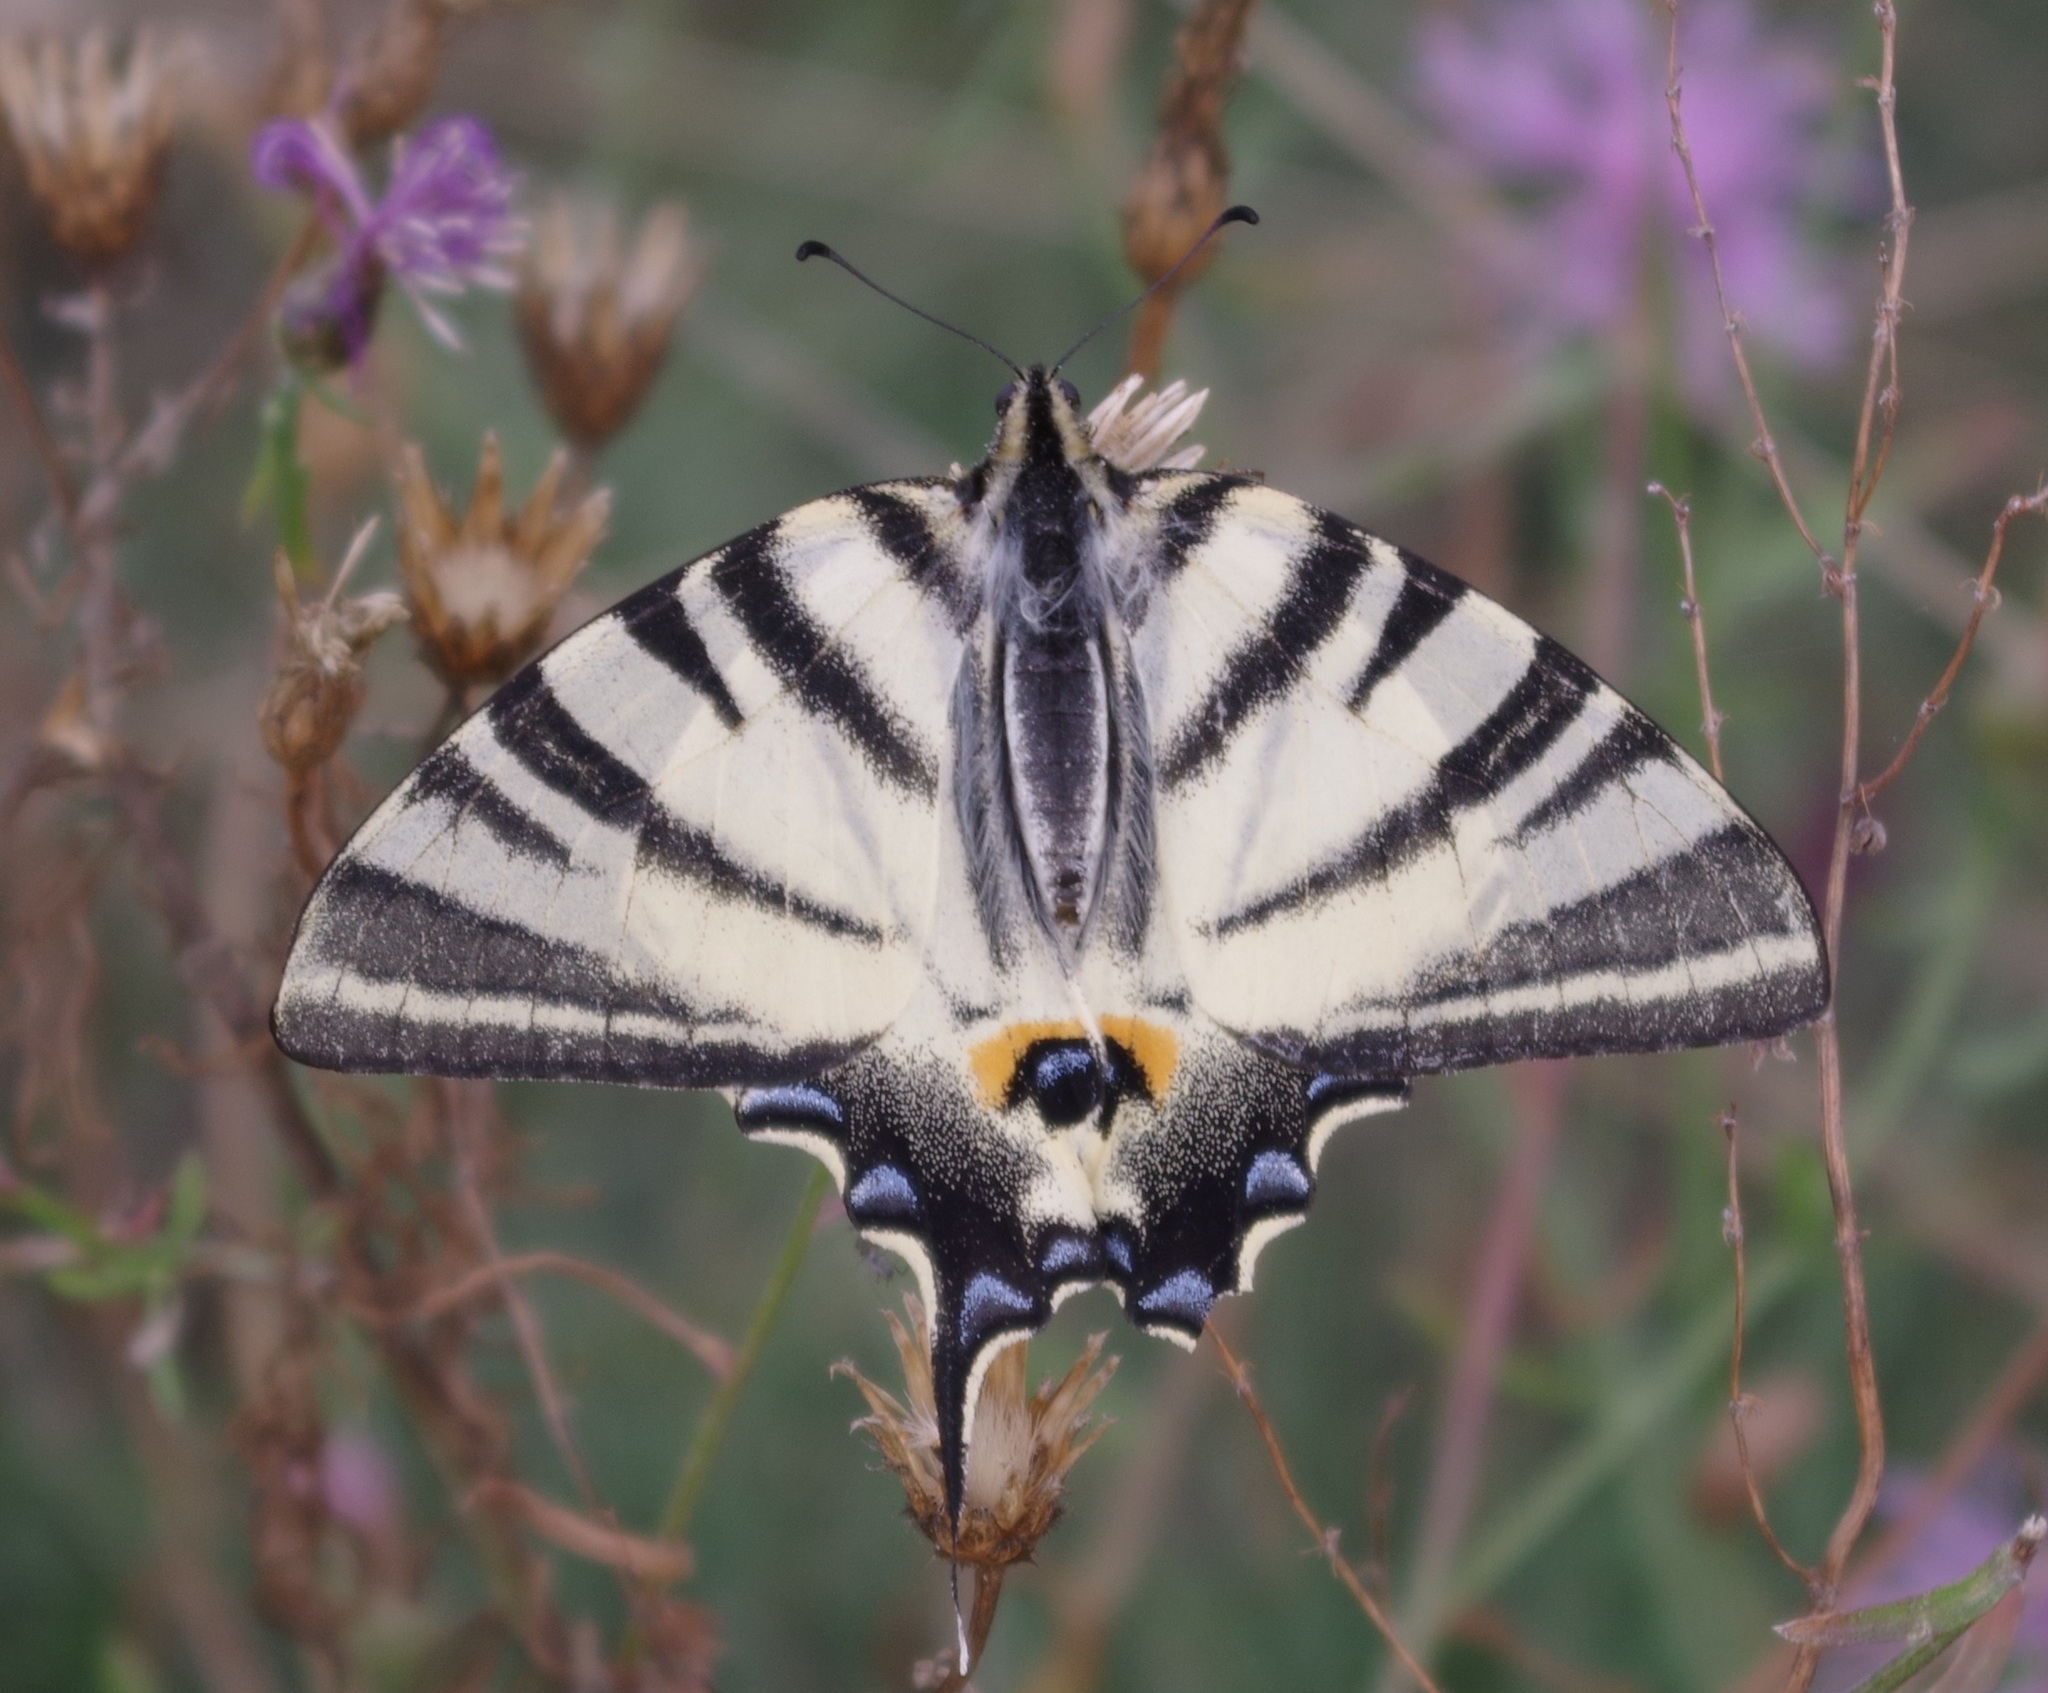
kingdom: Animalia
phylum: Arthropoda
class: Insecta
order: Lepidoptera
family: Papilionidae
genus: Iphiclides
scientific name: Iphiclides podalirius
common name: Scarce swallowtail
